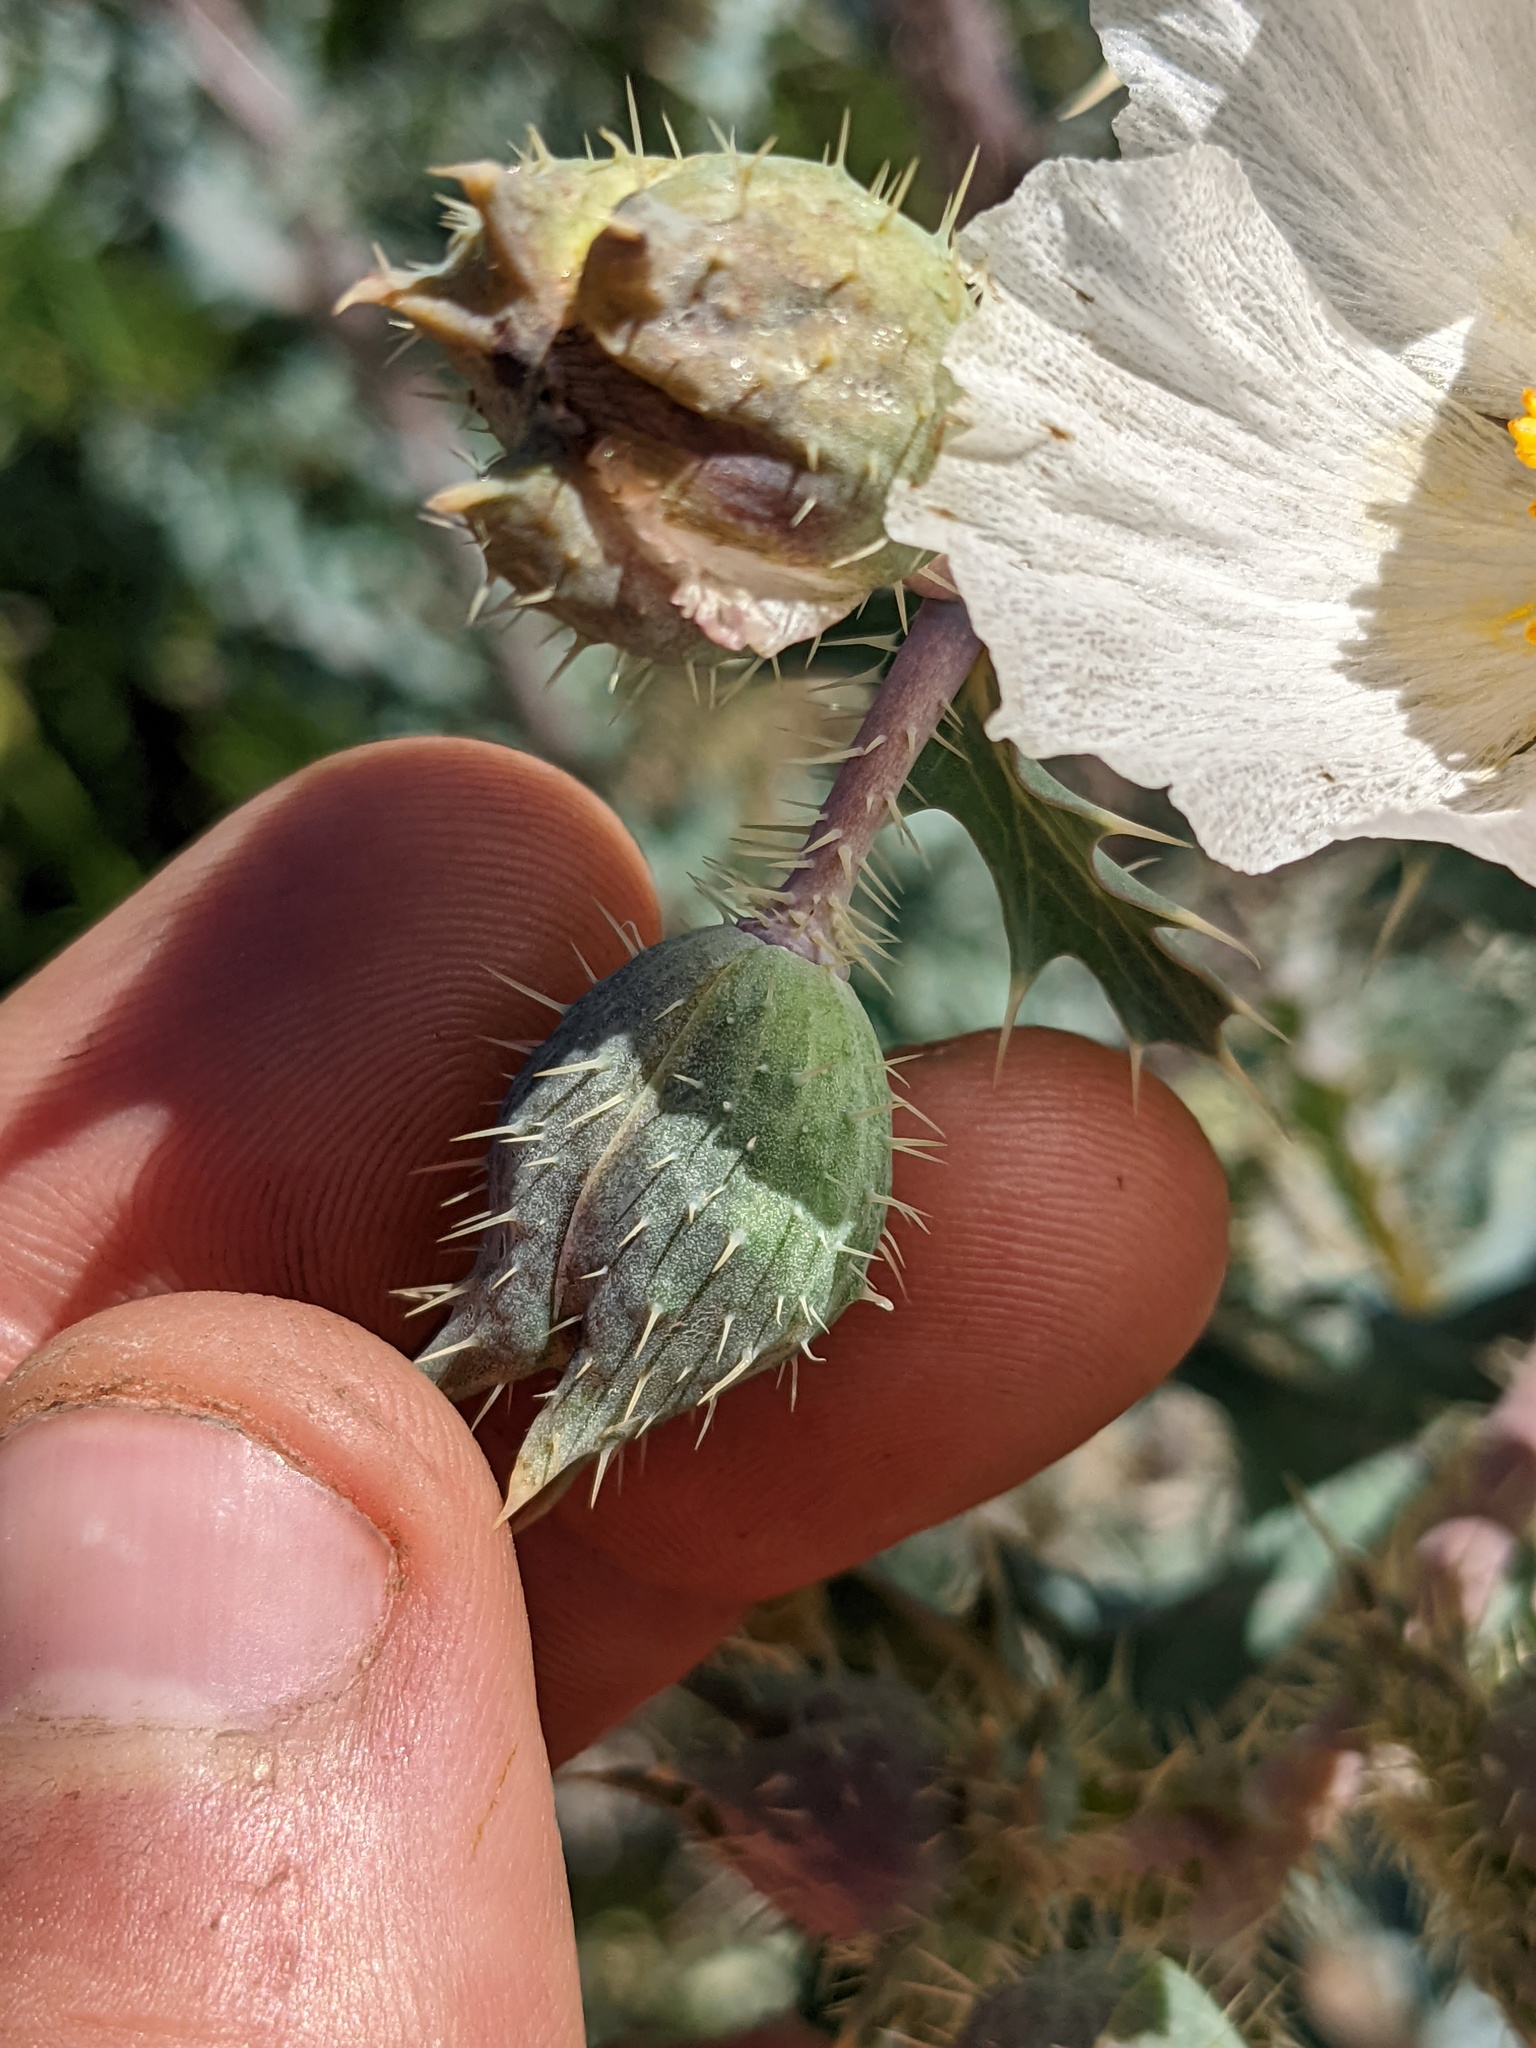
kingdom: Plantae
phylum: Tracheophyta
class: Magnoliopsida
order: Ranunculales
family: Papaveraceae
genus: Argemone
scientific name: Argemone munita
